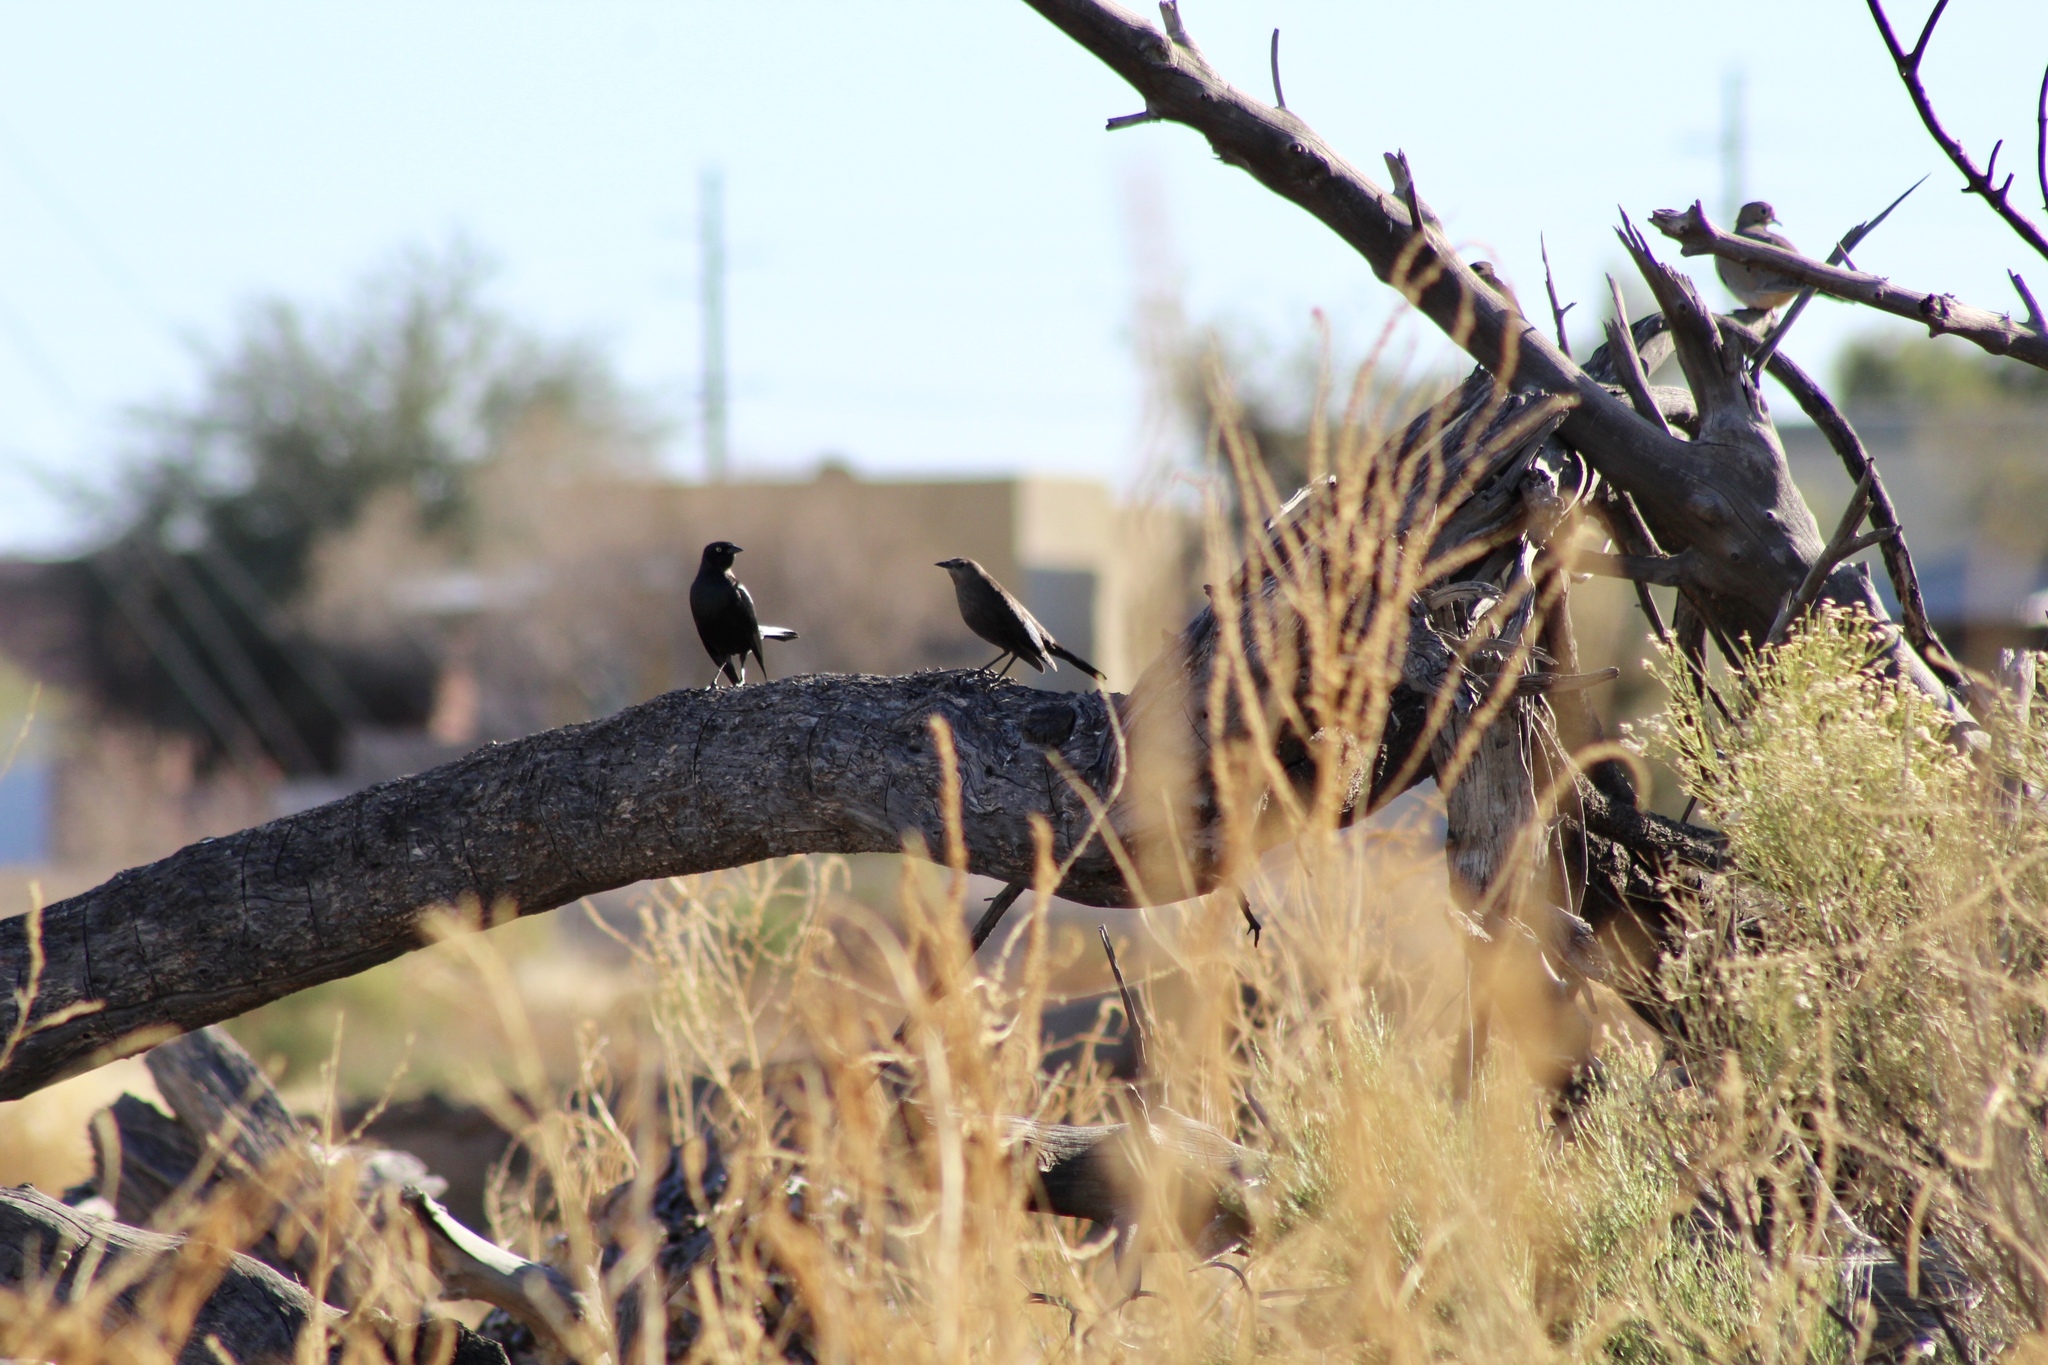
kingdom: Animalia
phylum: Chordata
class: Aves
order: Passeriformes
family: Icteridae
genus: Euphagus
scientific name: Euphagus cyanocephalus
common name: Brewer's blackbird
